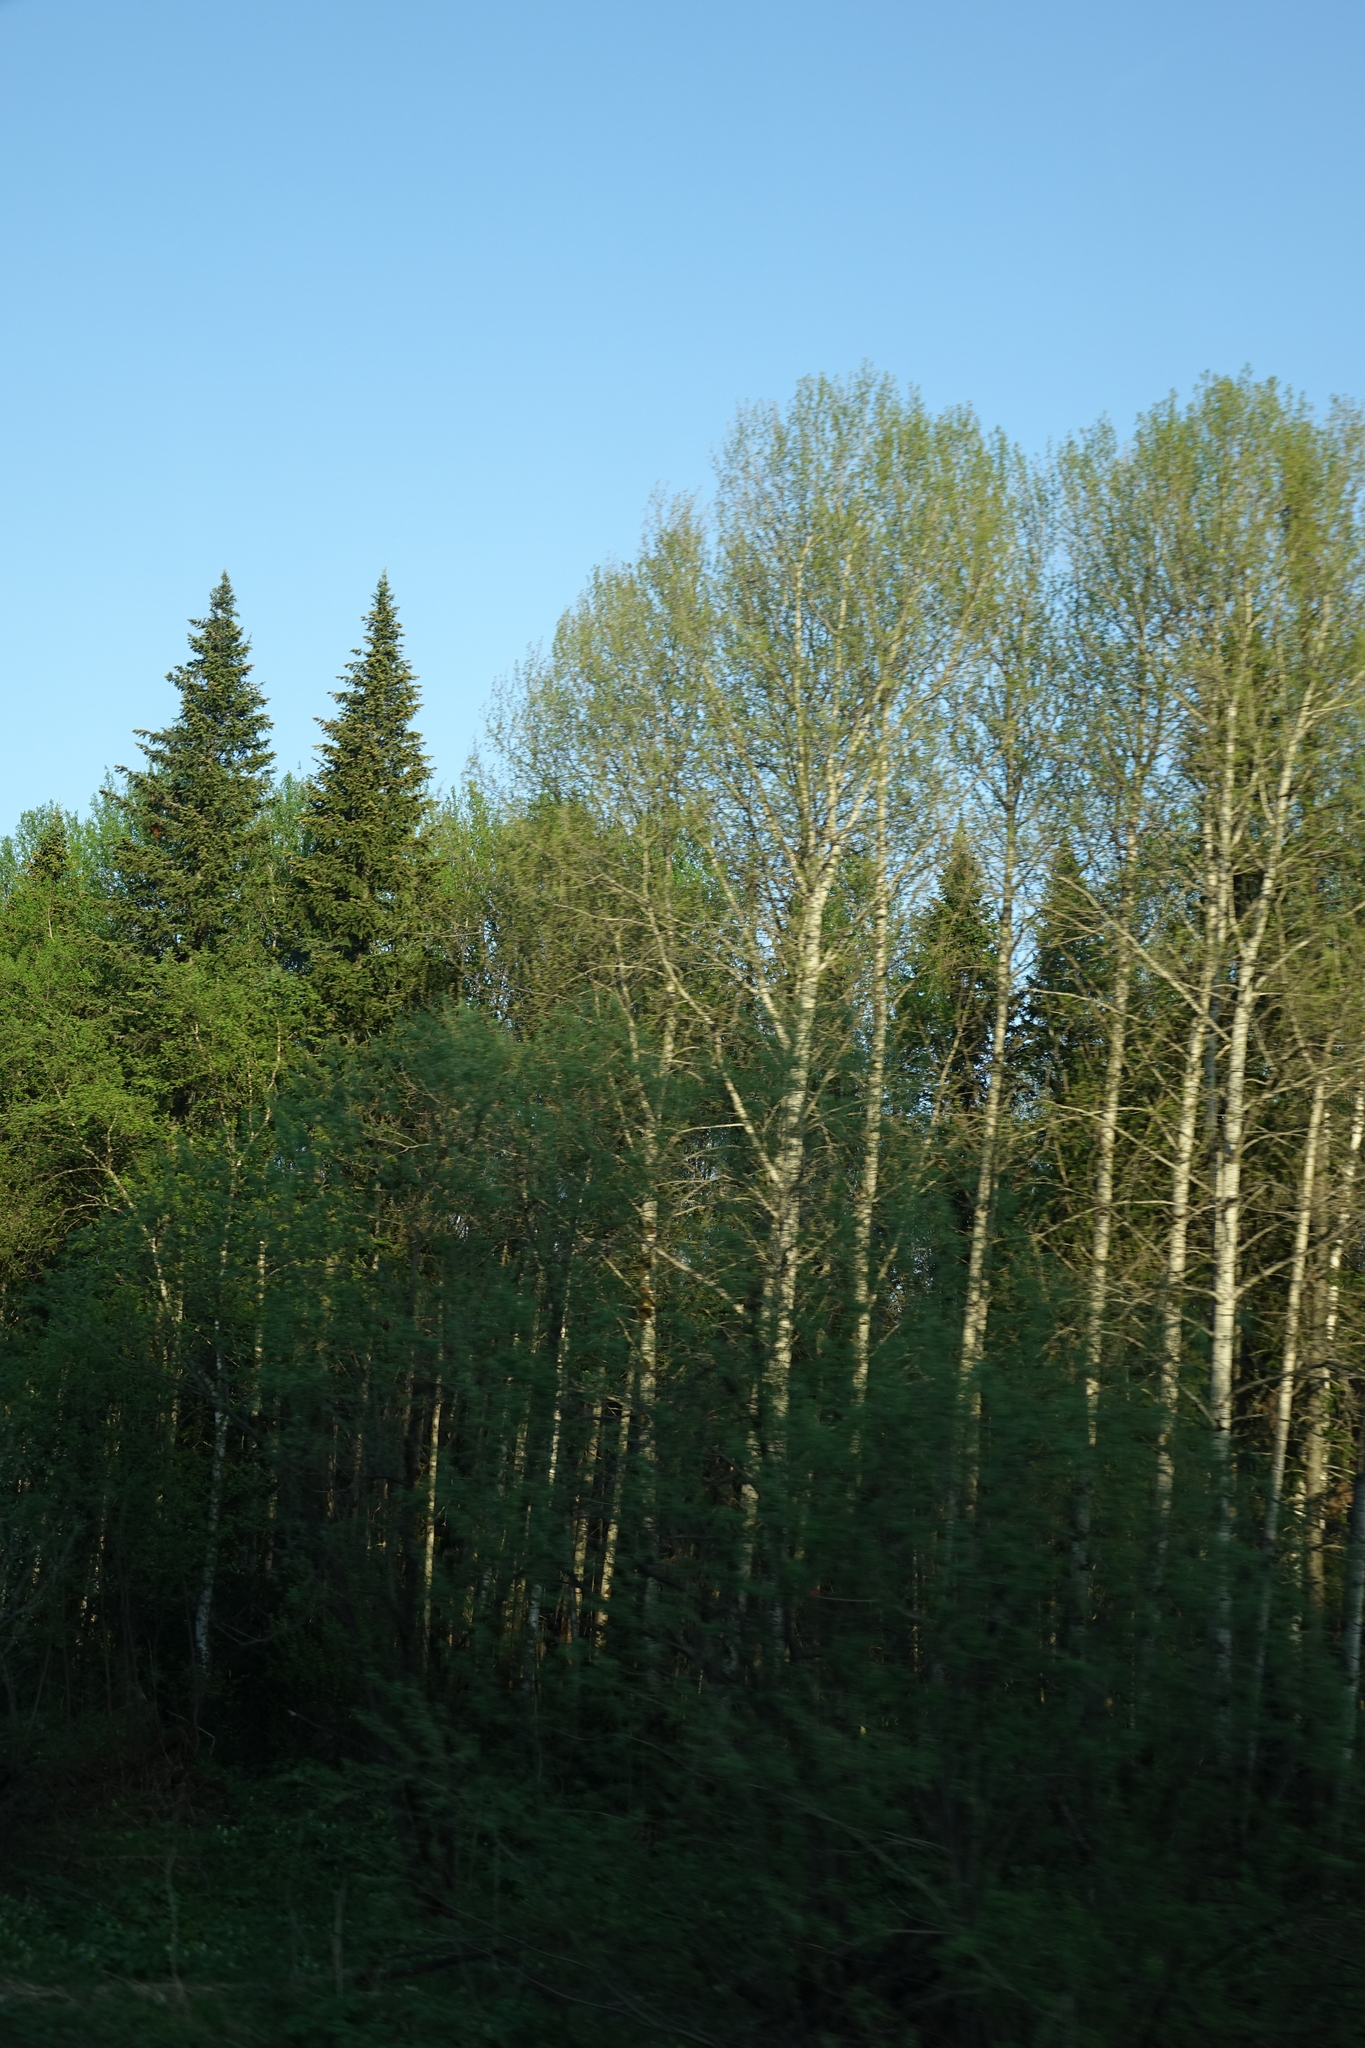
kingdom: Plantae
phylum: Tracheophyta
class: Magnoliopsida
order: Malpighiales
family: Salicaceae
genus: Populus
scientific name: Populus tremula
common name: European aspen
